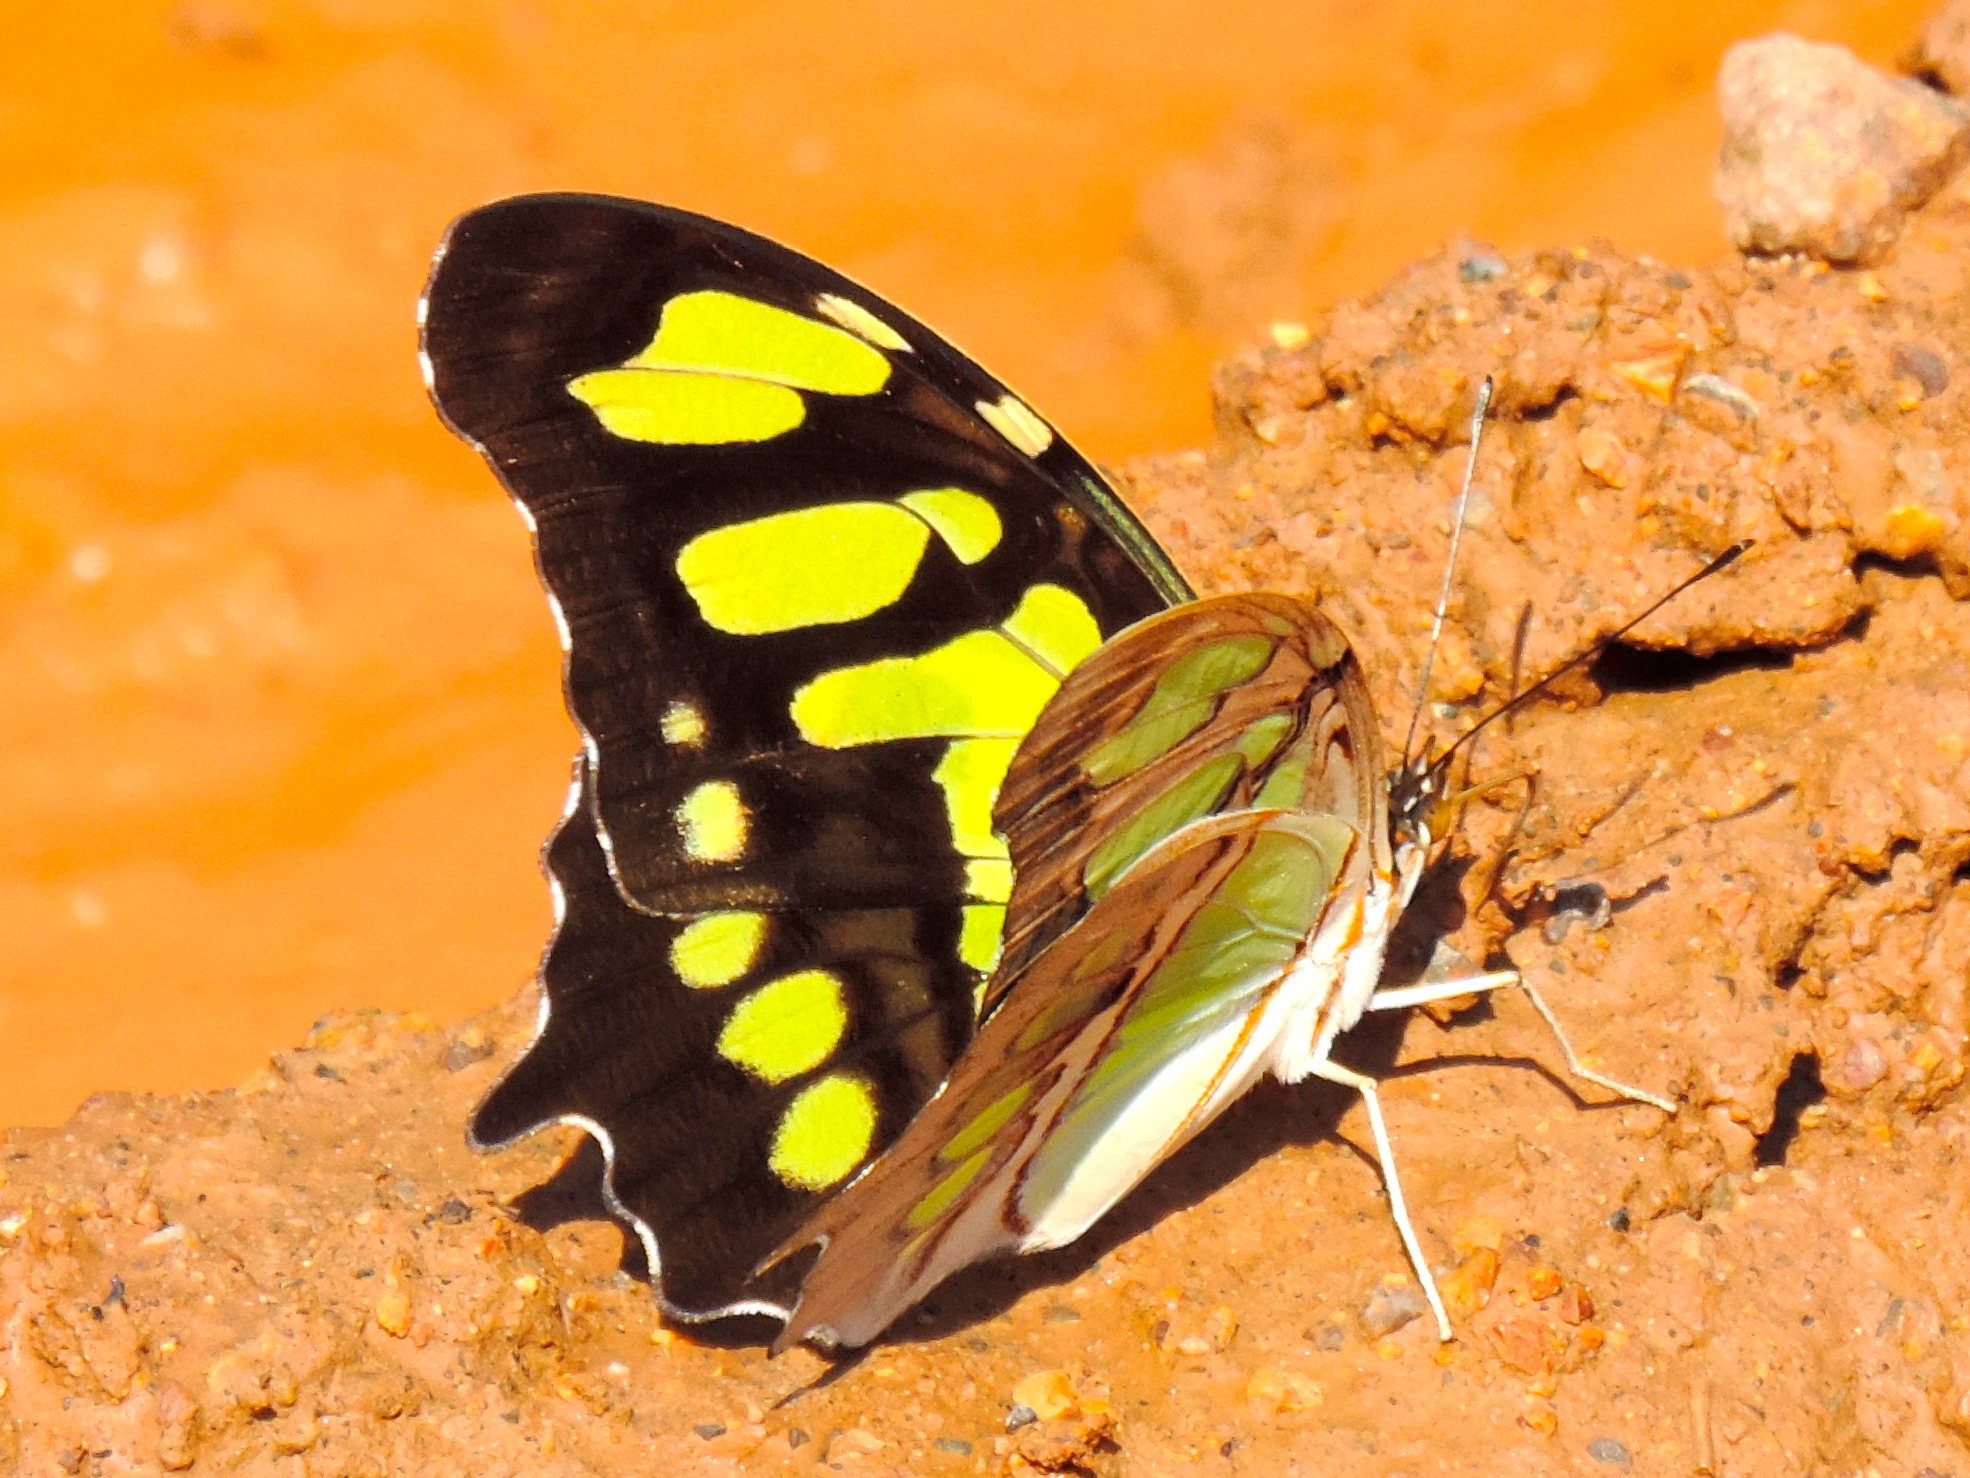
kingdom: Animalia
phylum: Arthropoda
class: Insecta
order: Lepidoptera
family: Nymphalidae
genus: Siproeta
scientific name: Siproeta stelenes
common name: Malachite
